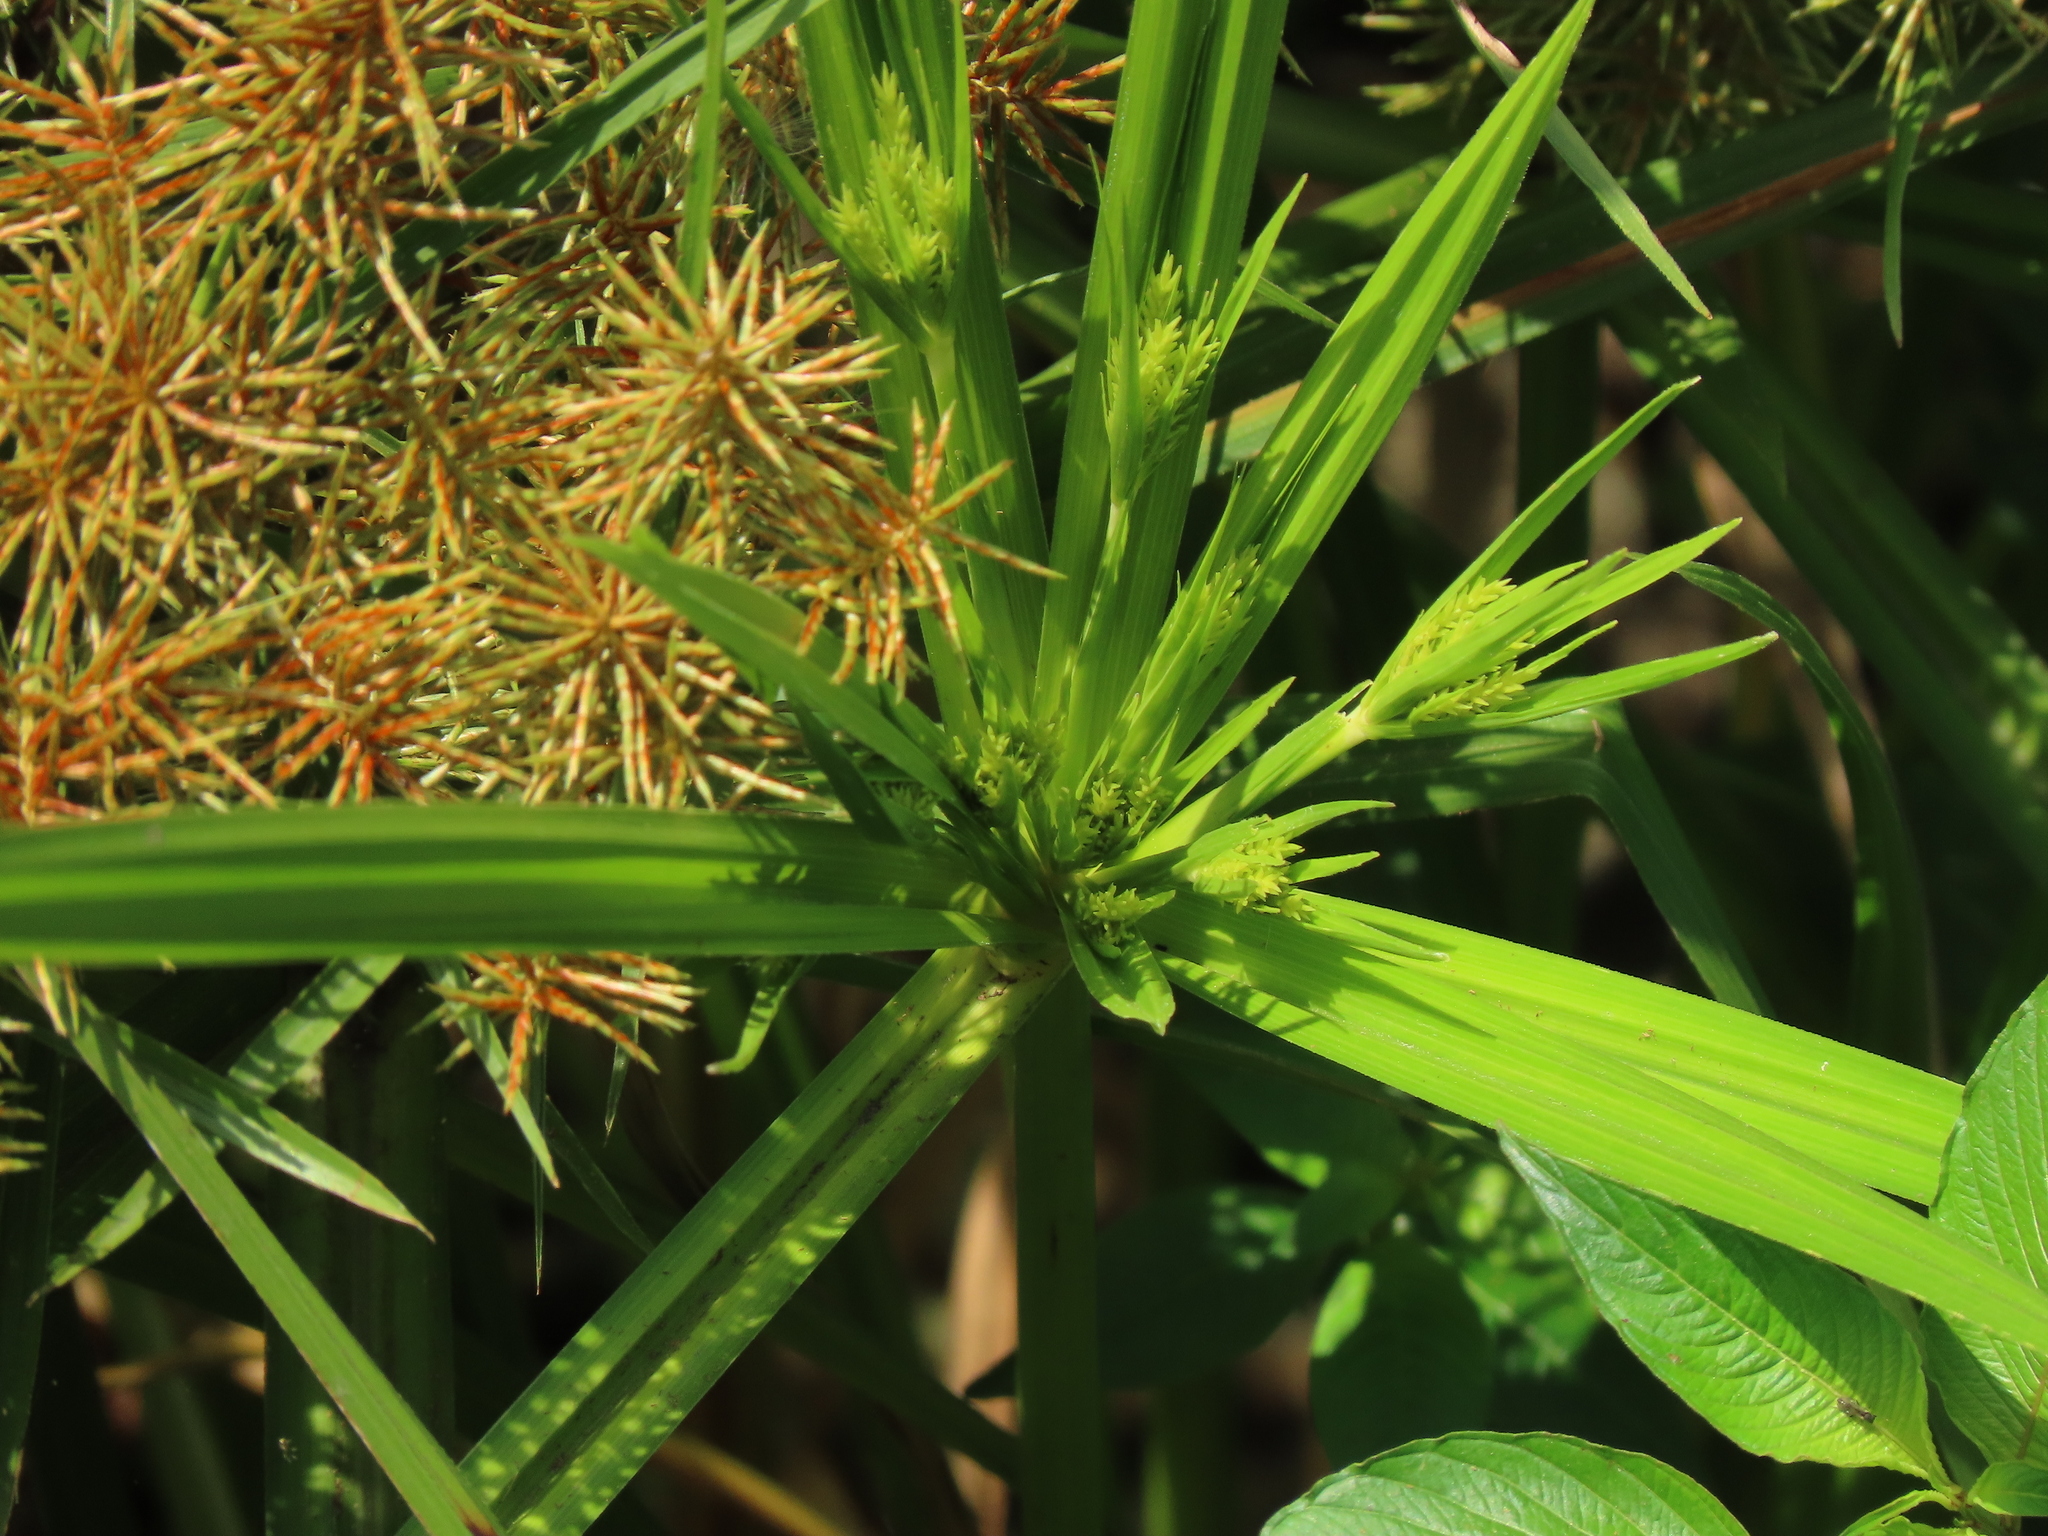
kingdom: Plantae
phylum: Tracheophyta
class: Liliopsida
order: Poales
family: Cyperaceae
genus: Cyperus
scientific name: Cyperus odoratus
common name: Fragrant flatsedge
